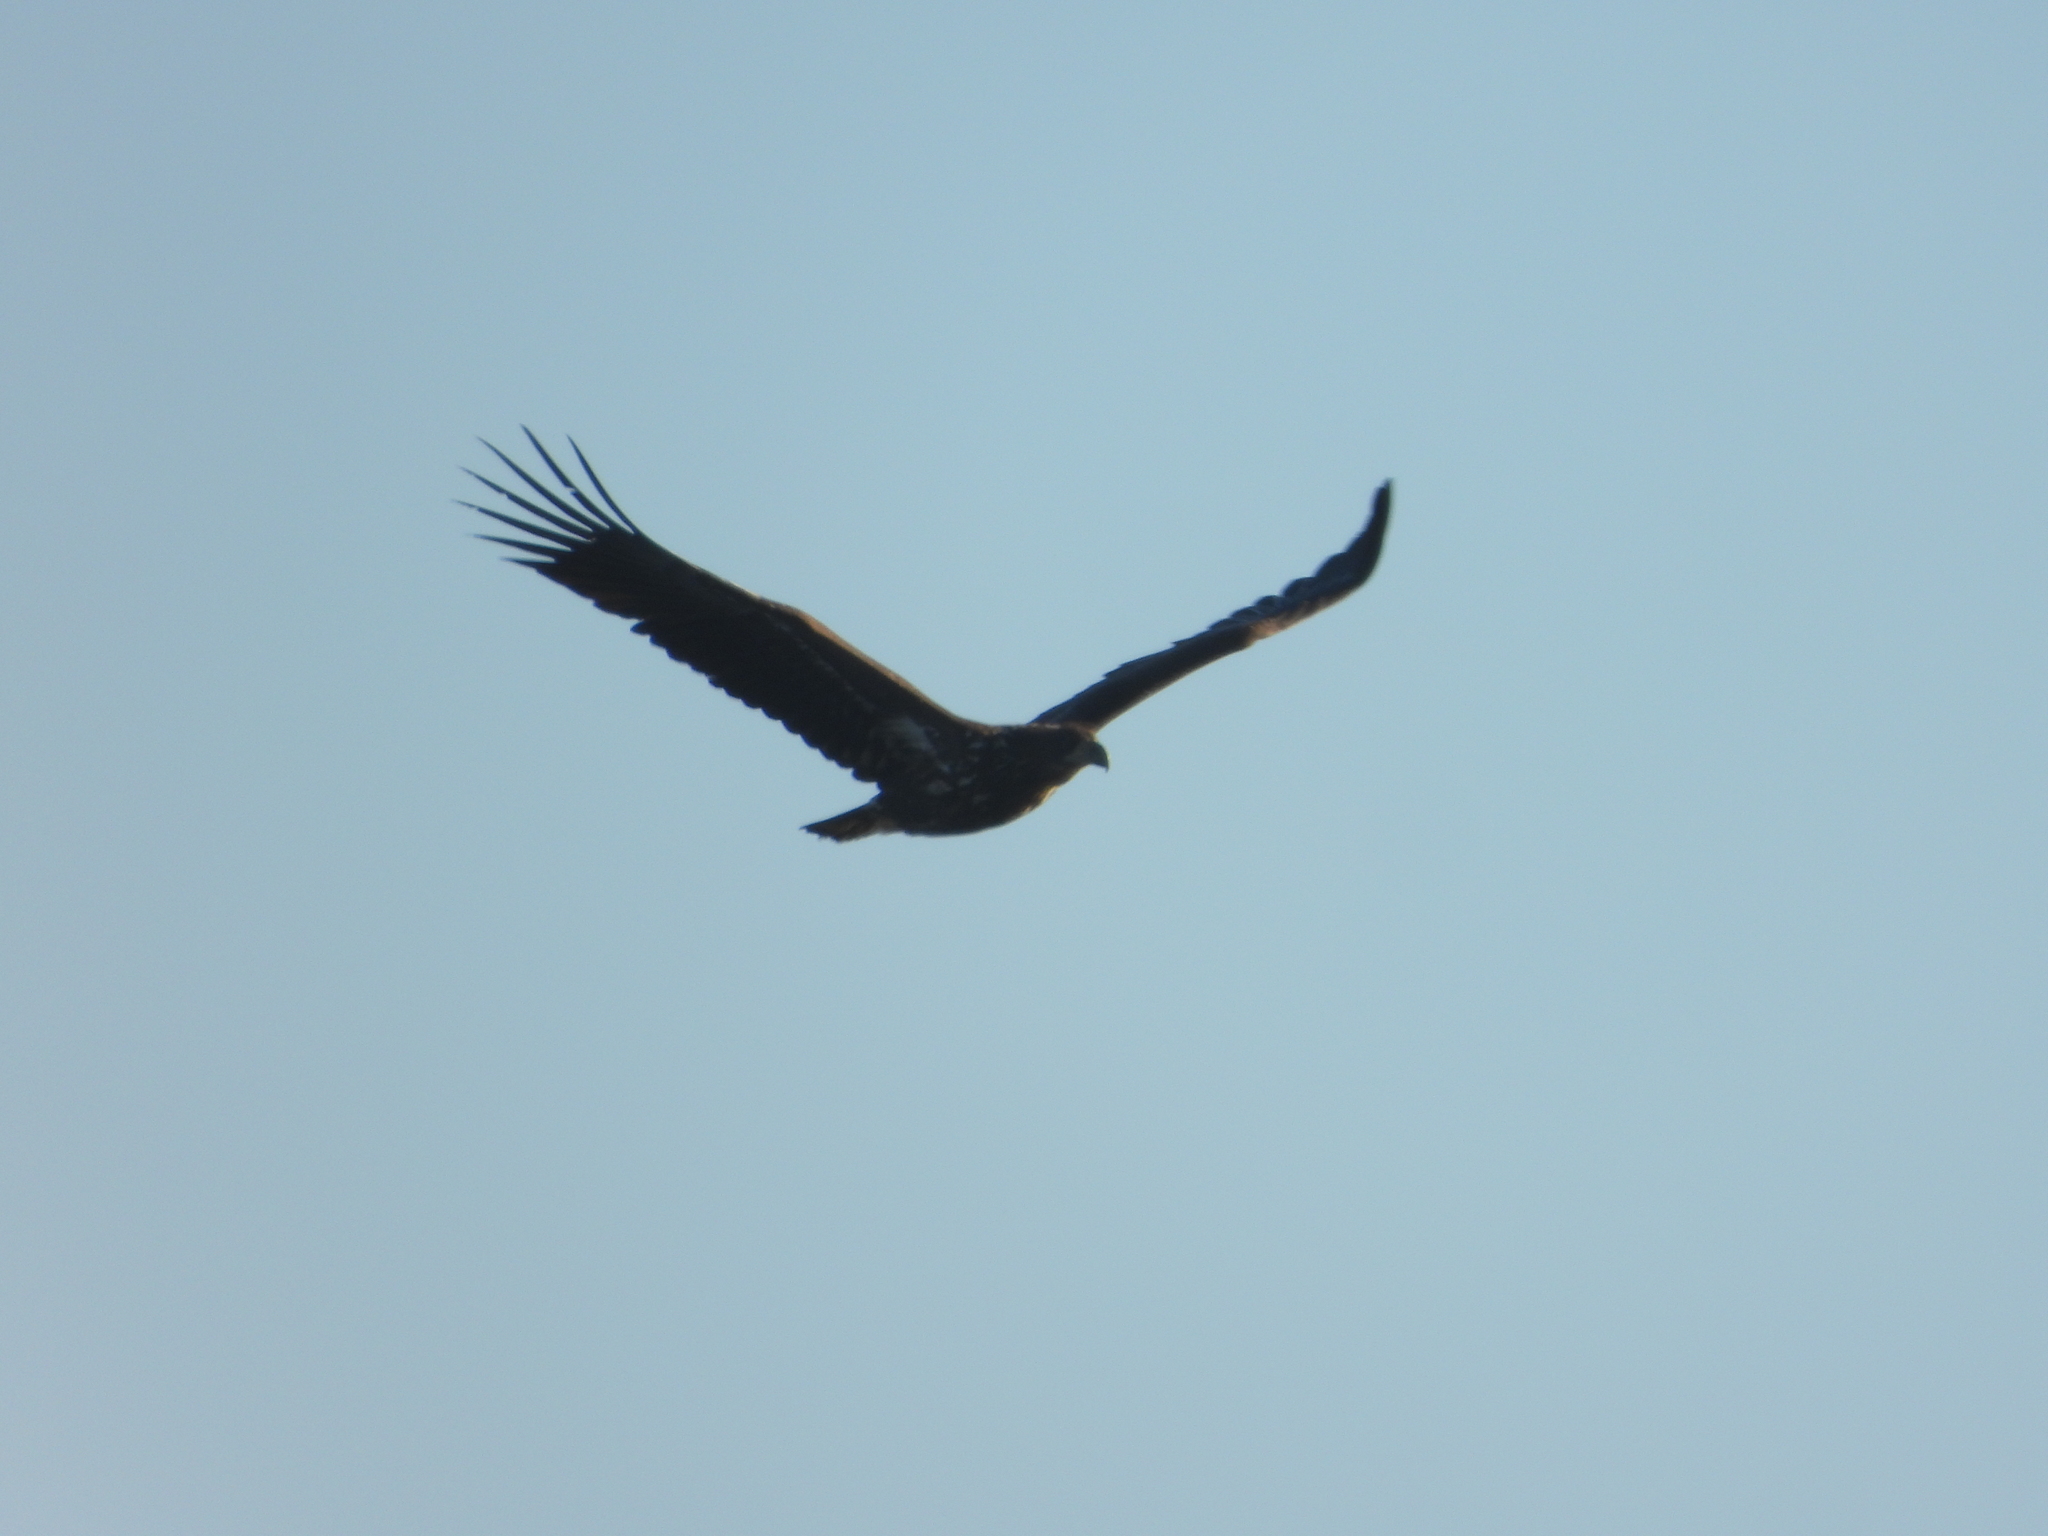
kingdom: Animalia
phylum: Chordata
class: Aves
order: Accipitriformes
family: Accipitridae
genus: Haliaeetus
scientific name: Haliaeetus albicilla
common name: White-tailed eagle
